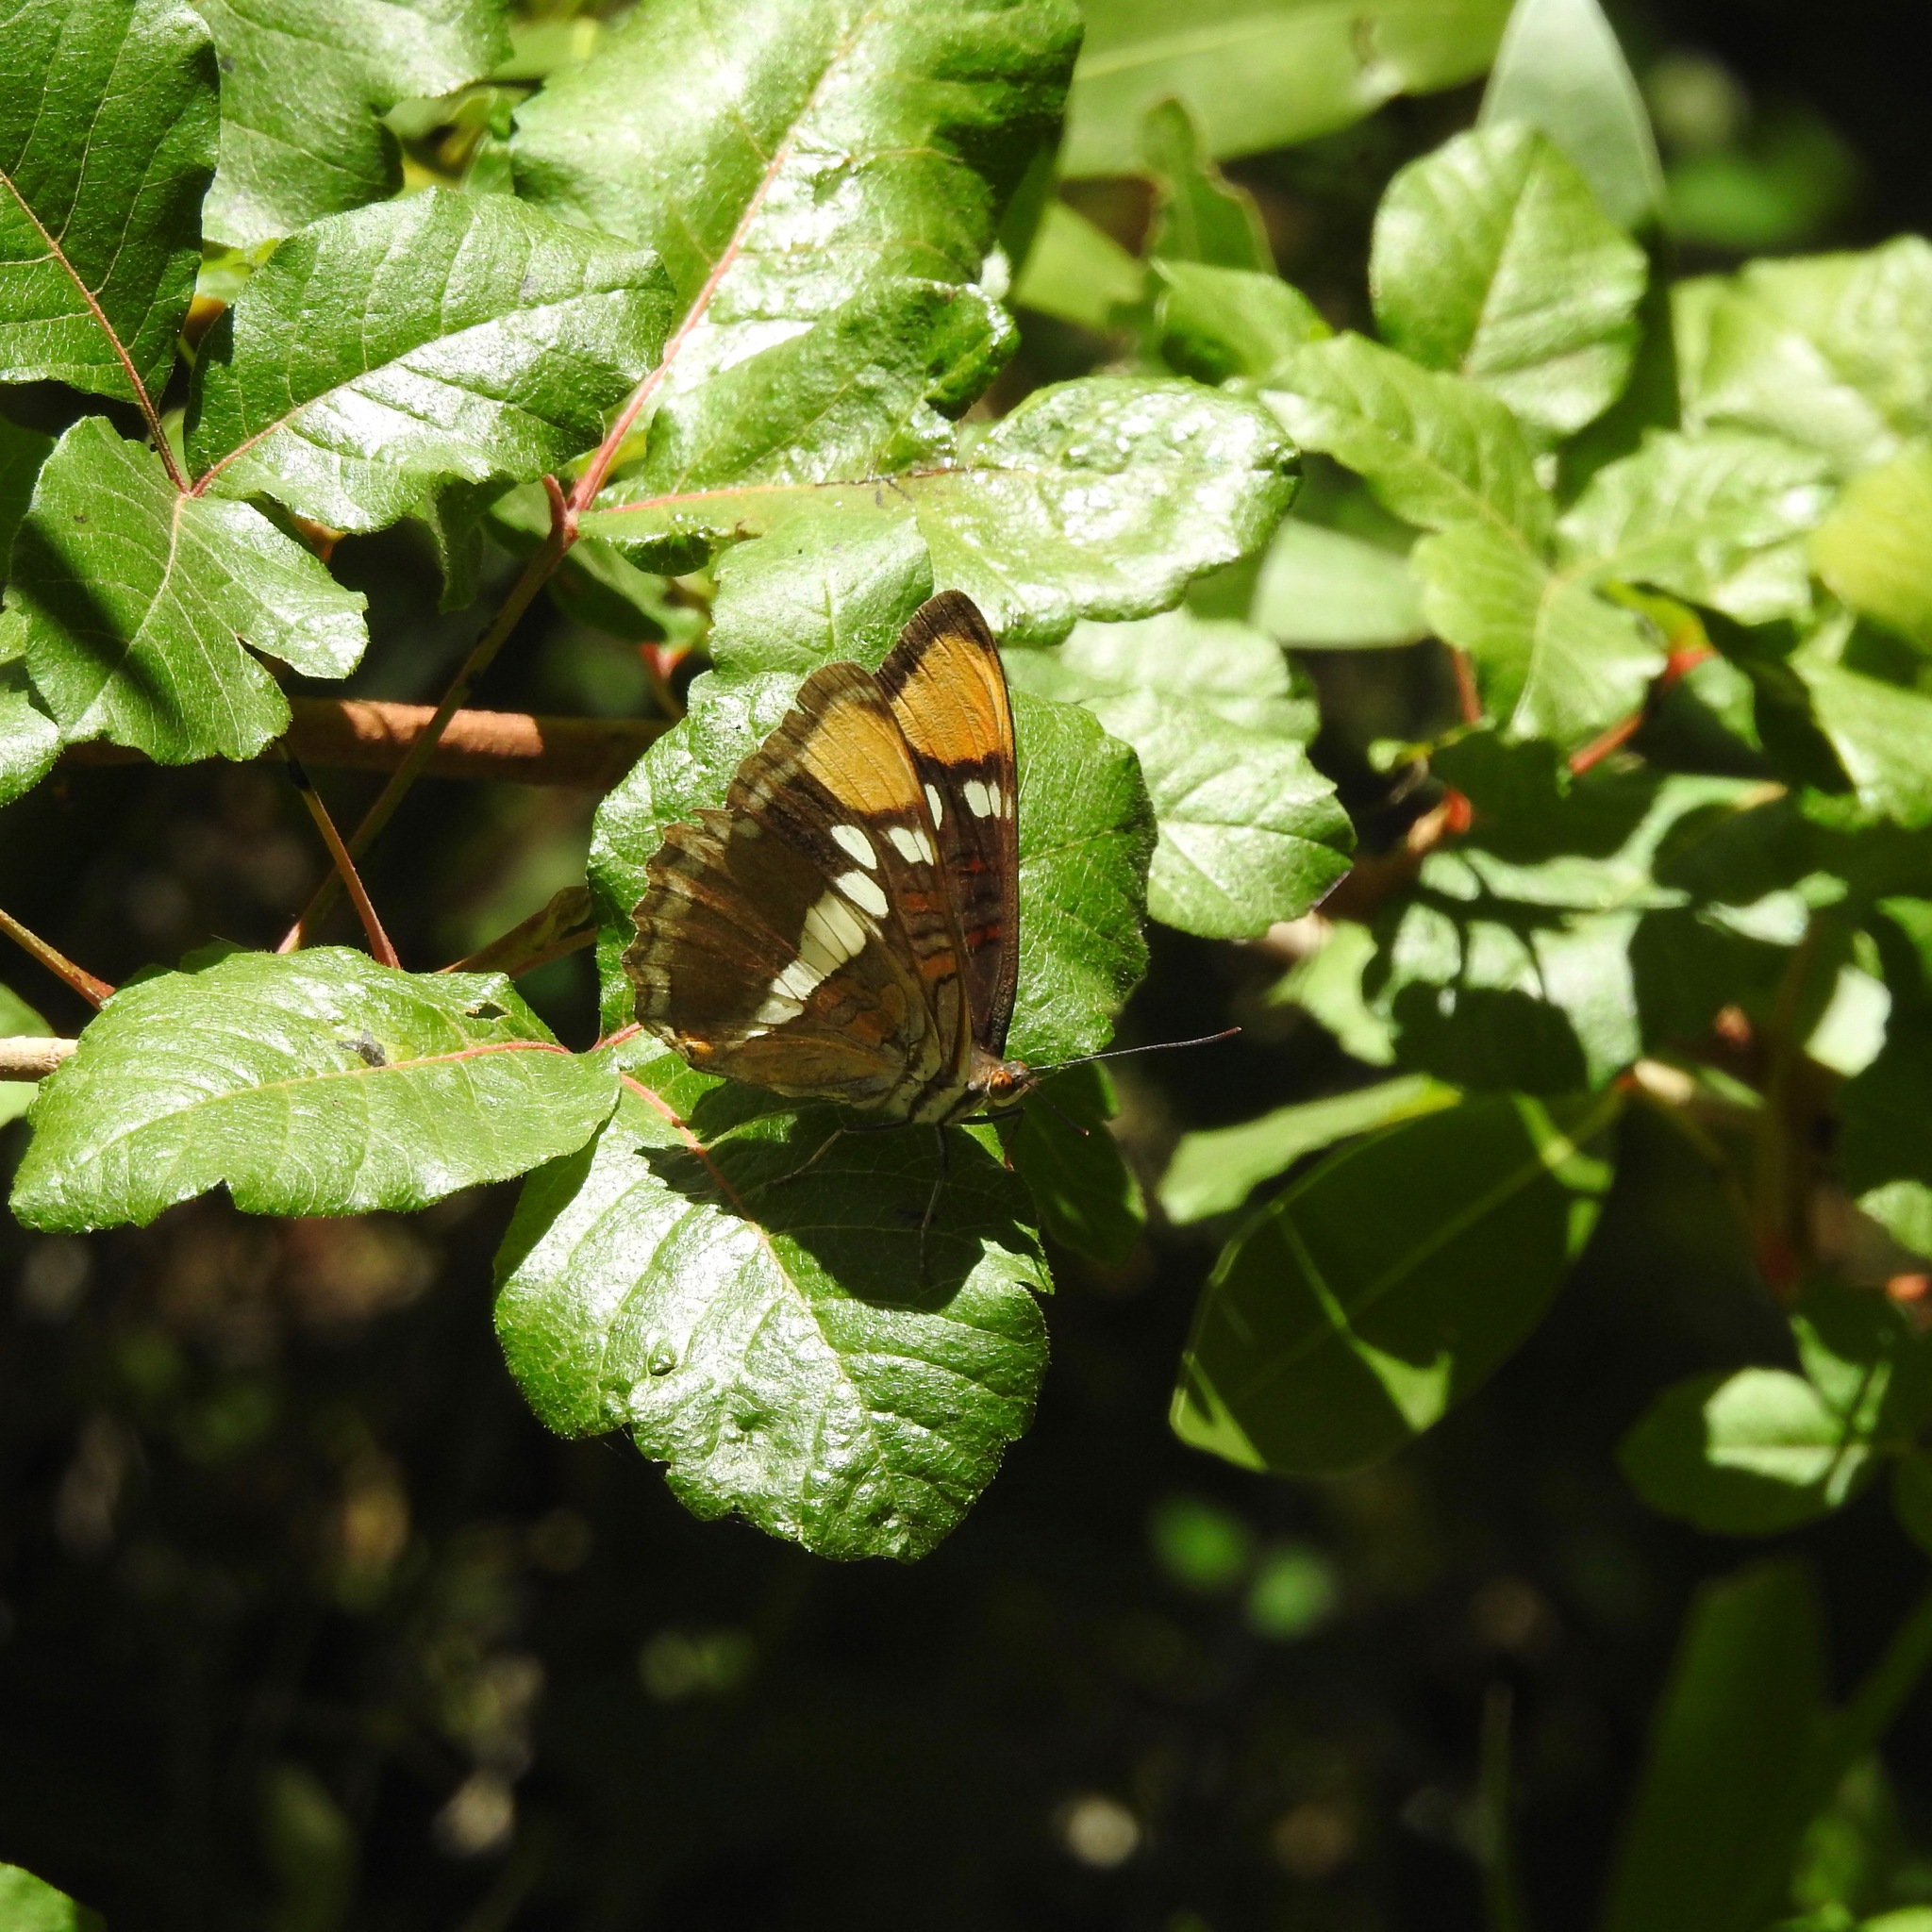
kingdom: Plantae
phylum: Tracheophyta
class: Magnoliopsida
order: Sapindales
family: Anacardiaceae
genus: Toxicodendron
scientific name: Toxicodendron diversilobum
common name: Pacific poison-oak
